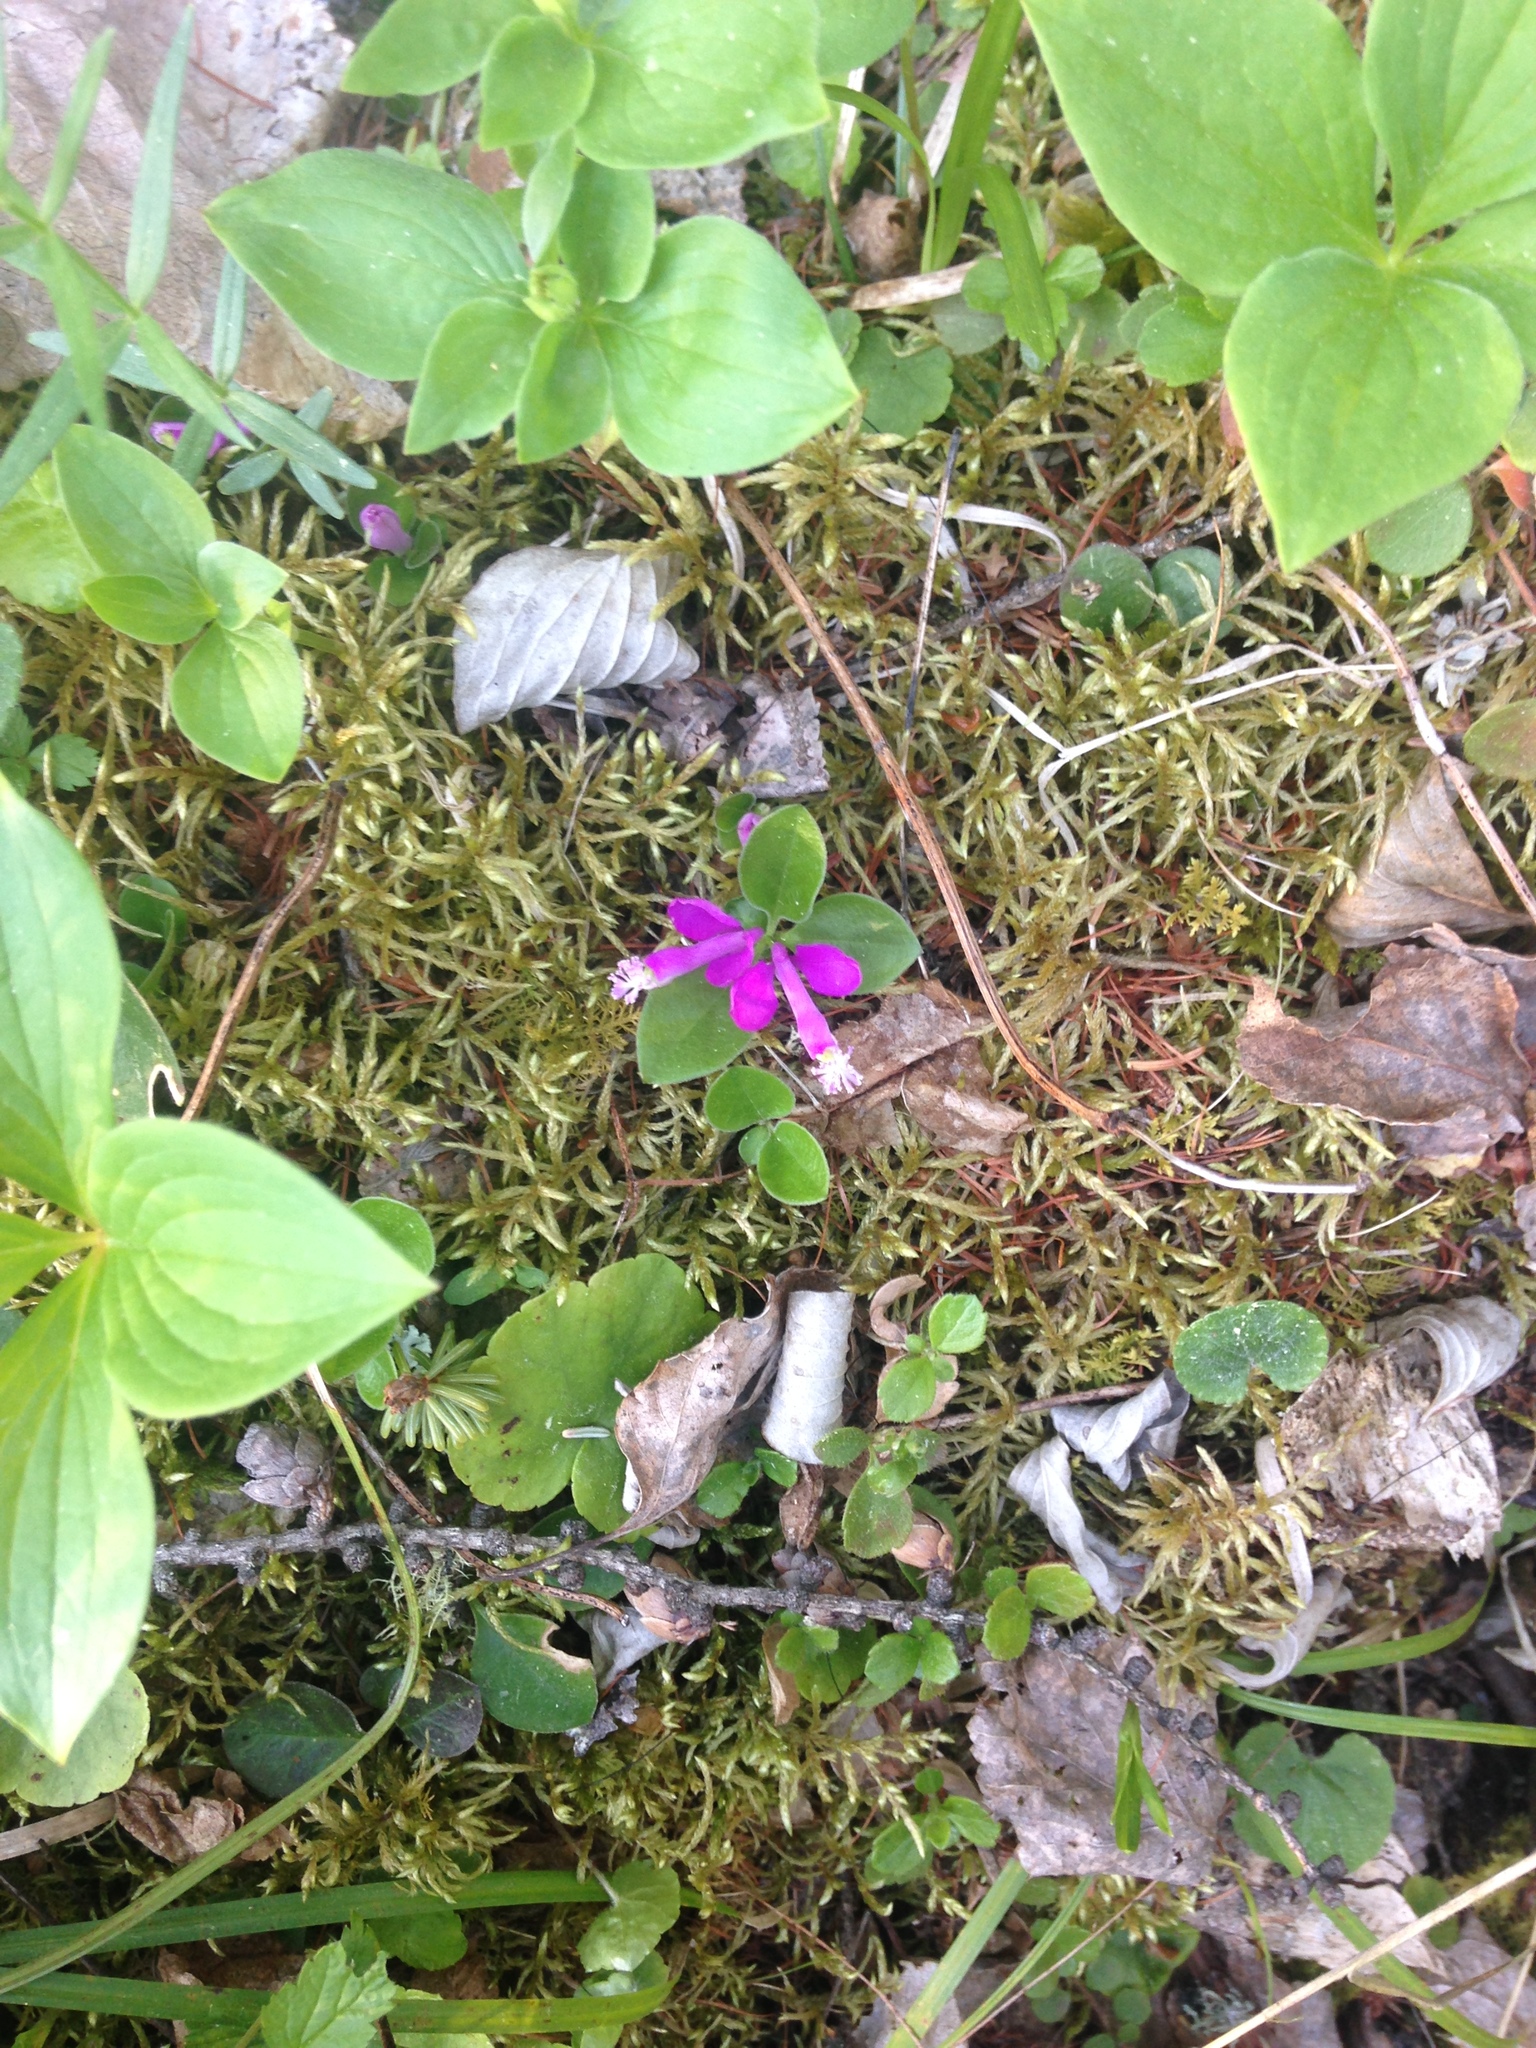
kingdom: Plantae
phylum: Tracheophyta
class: Magnoliopsida
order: Fabales
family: Polygalaceae
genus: Polygaloides
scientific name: Polygaloides paucifolia
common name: Bird-on-the-wing
